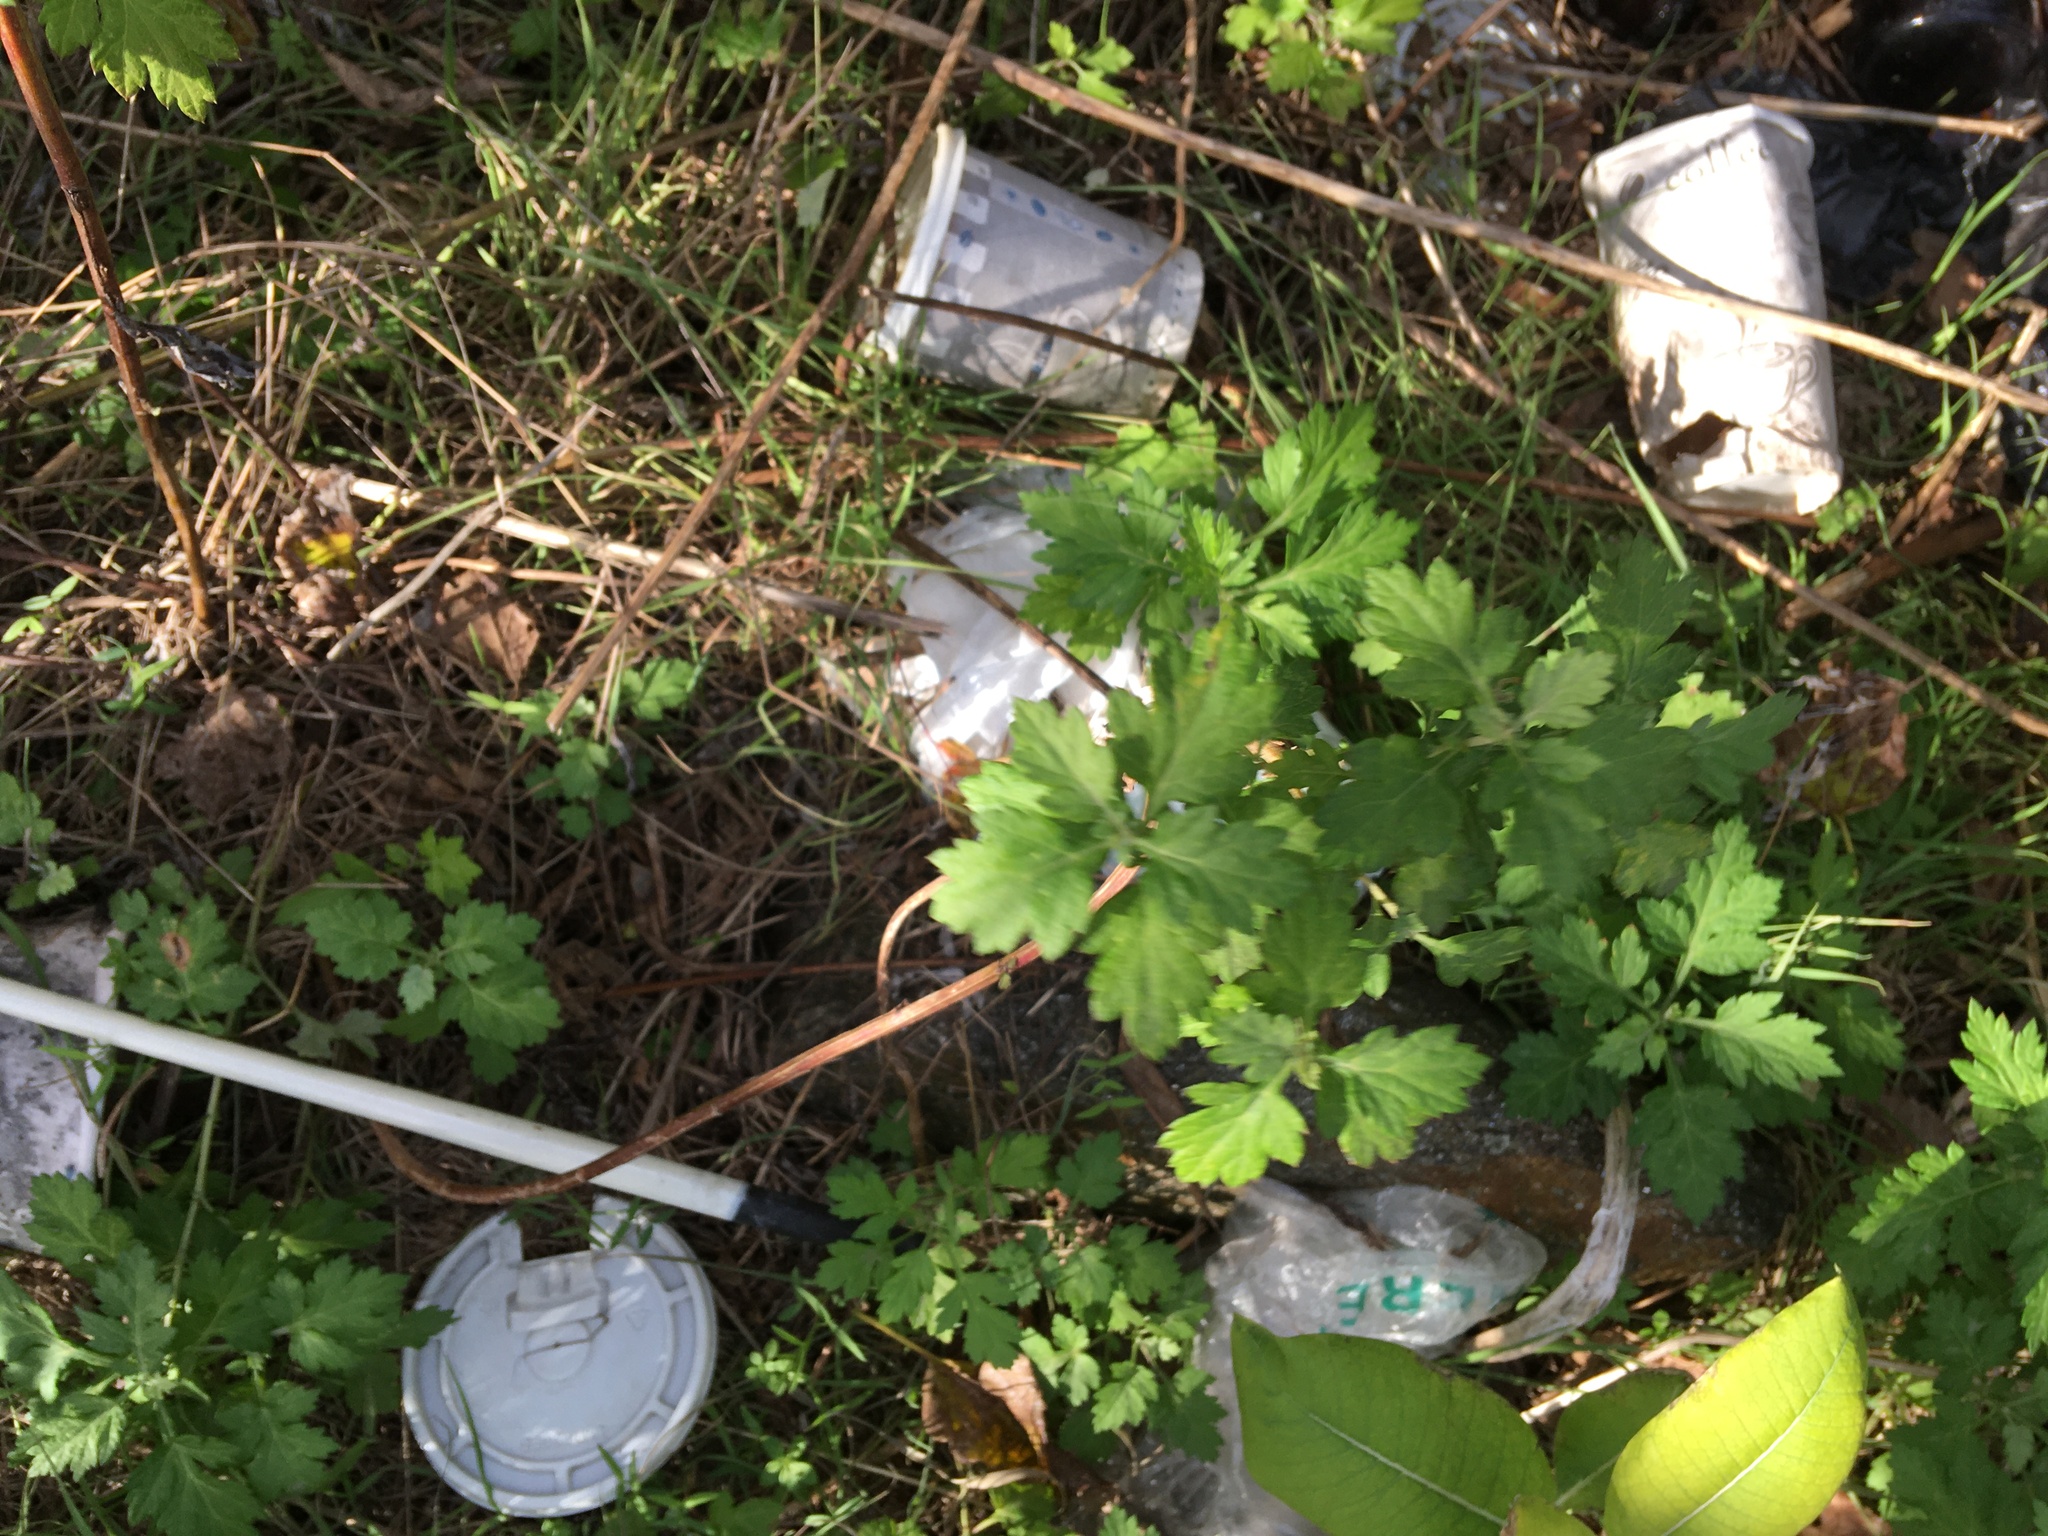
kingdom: Plantae
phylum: Tracheophyta
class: Magnoliopsida
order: Asterales
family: Asteraceae
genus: Artemisia
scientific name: Artemisia vulgaris
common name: Mugwort
